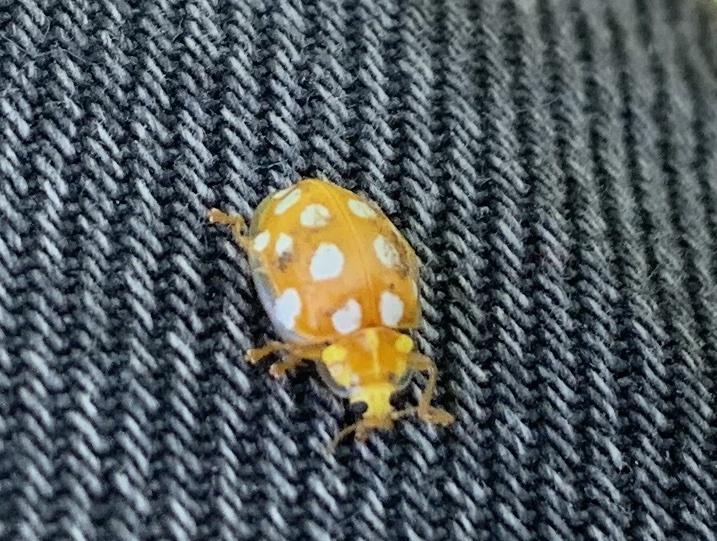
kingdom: Animalia
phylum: Arthropoda
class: Insecta
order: Coleoptera
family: Coccinellidae
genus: Halyzia
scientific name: Halyzia sedecimguttata
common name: Orange ladybird
